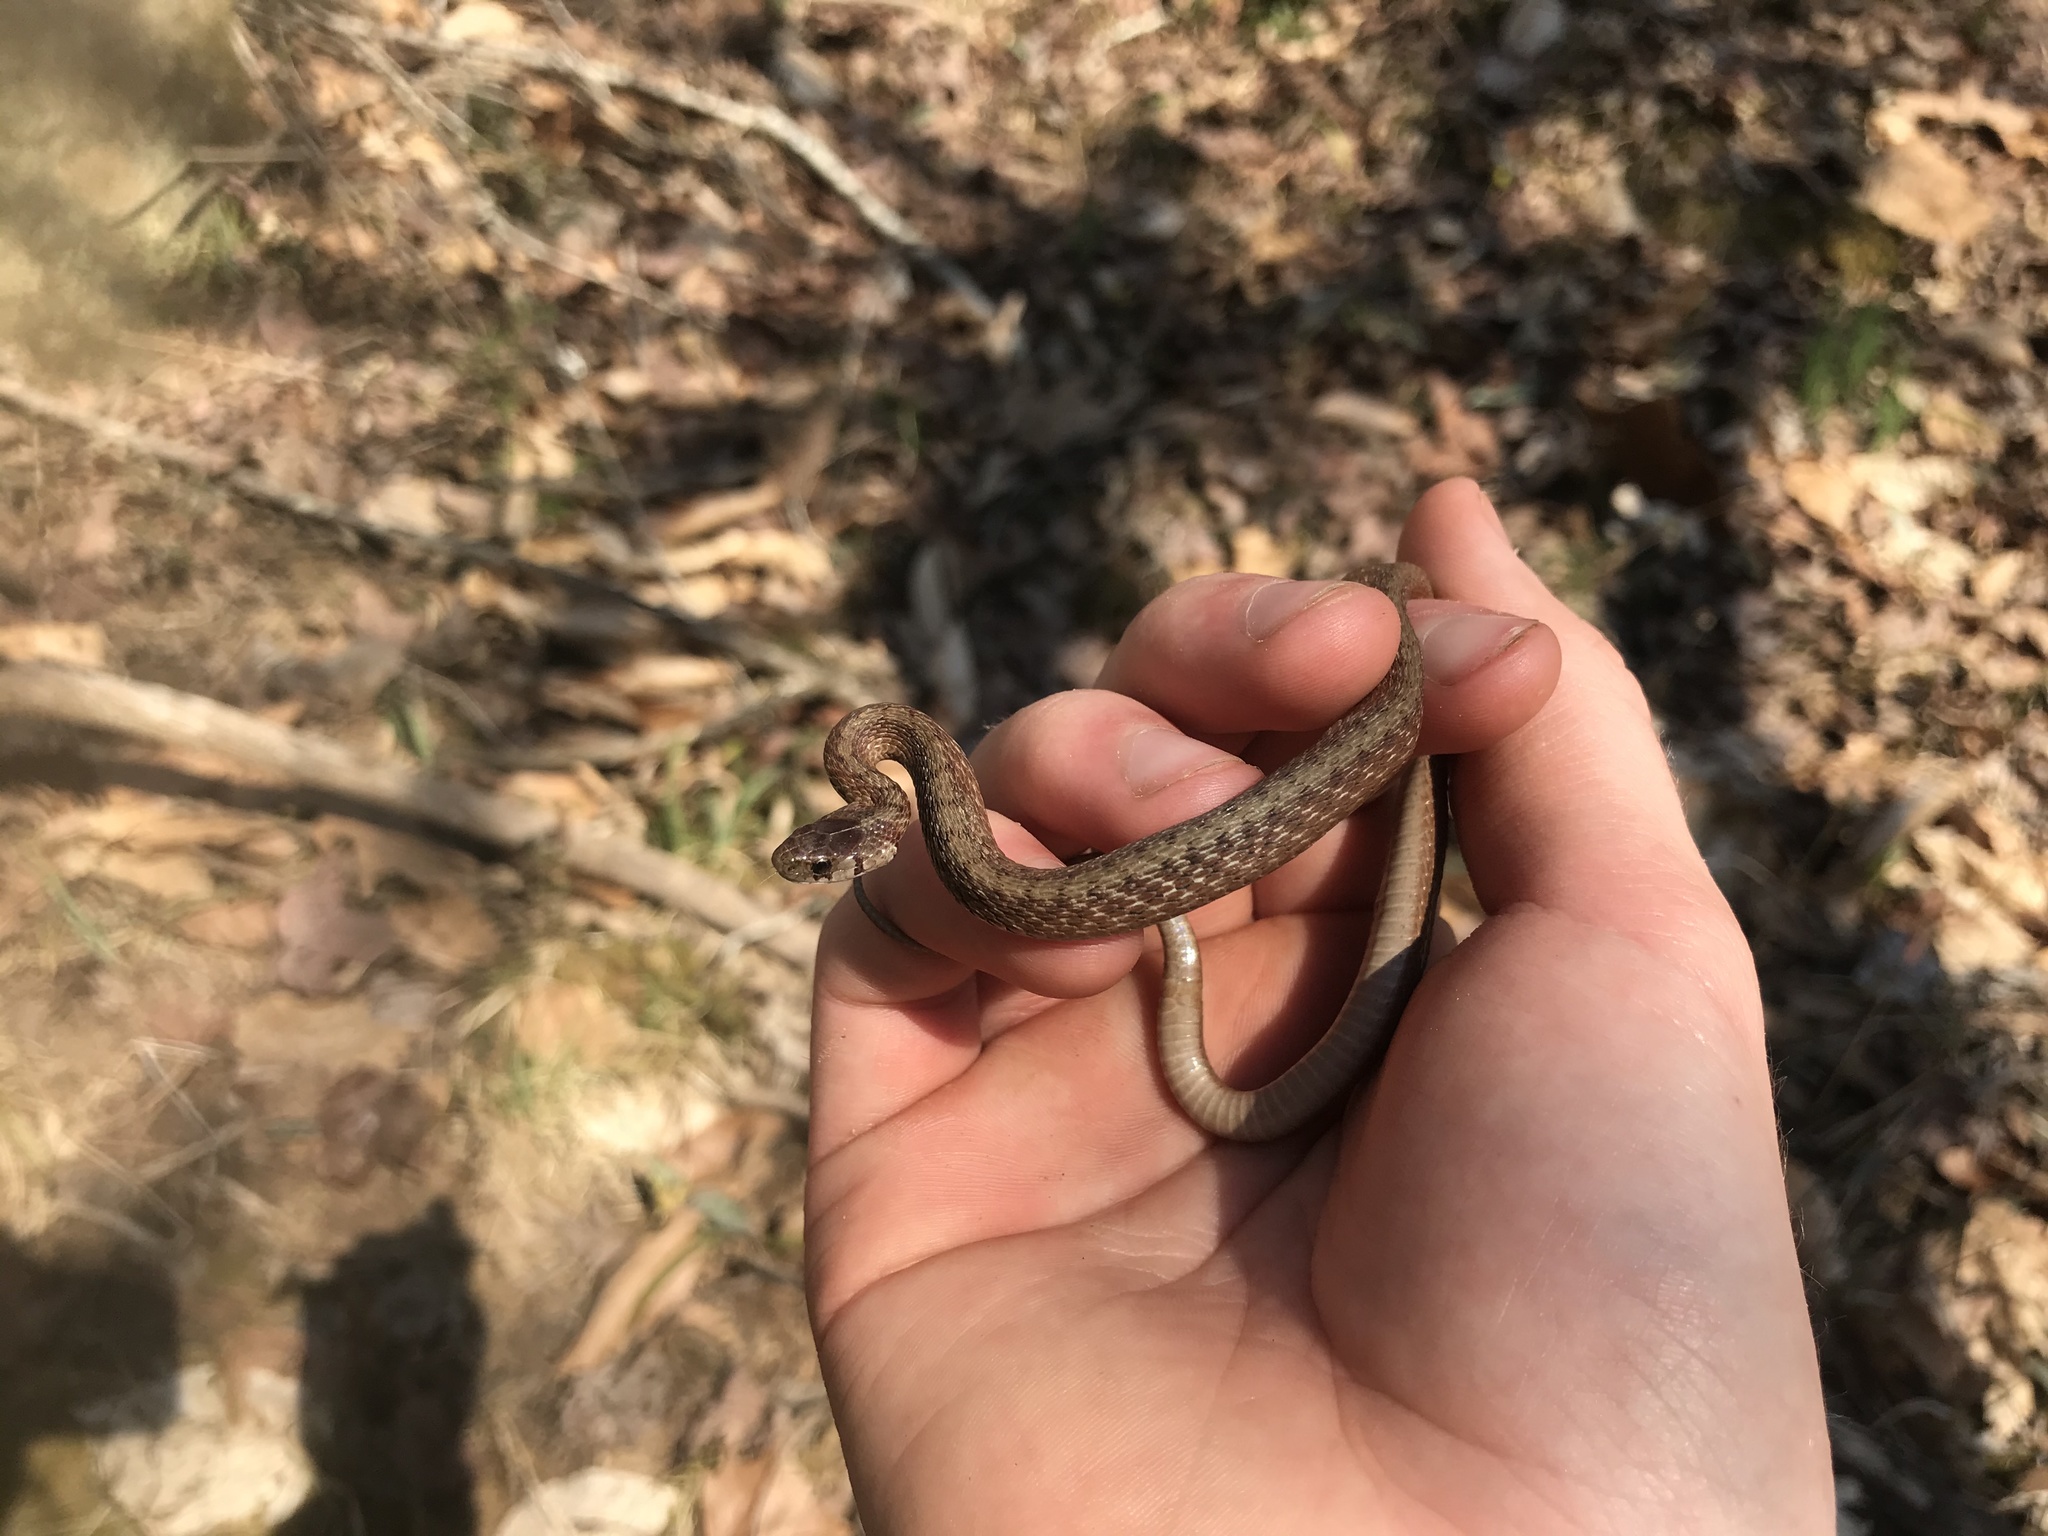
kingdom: Animalia
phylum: Chordata
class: Squamata
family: Colubridae
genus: Storeria
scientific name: Storeria dekayi
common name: (dekay’s) brown snake
